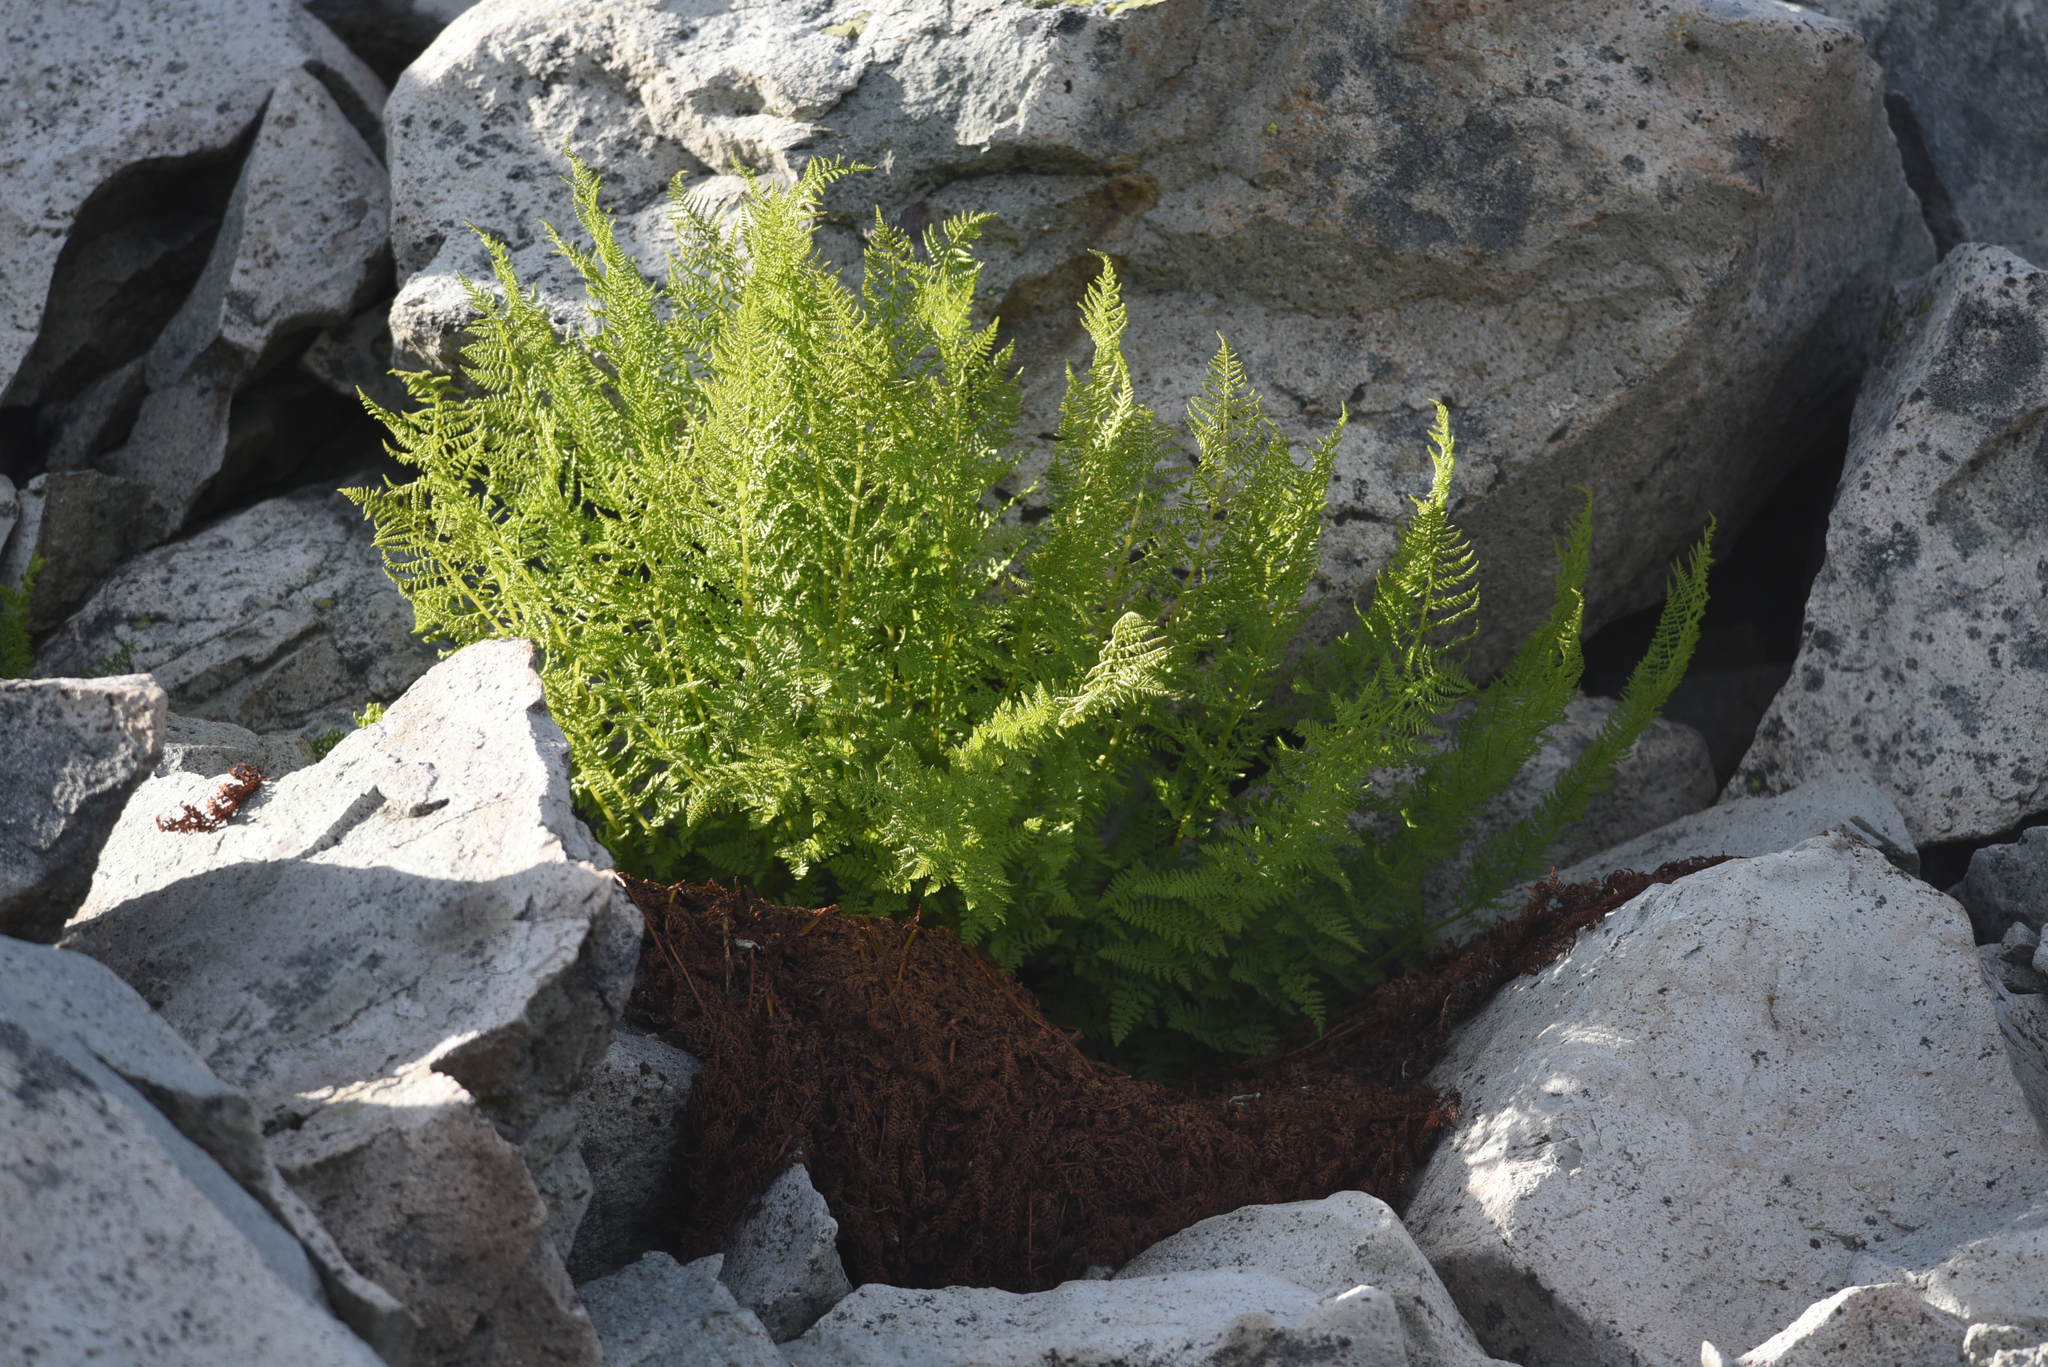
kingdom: Plantae
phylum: Tracheophyta
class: Polypodiopsida
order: Polypodiales
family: Athyriaceae
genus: Athyrium
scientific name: Athyrium americanum
